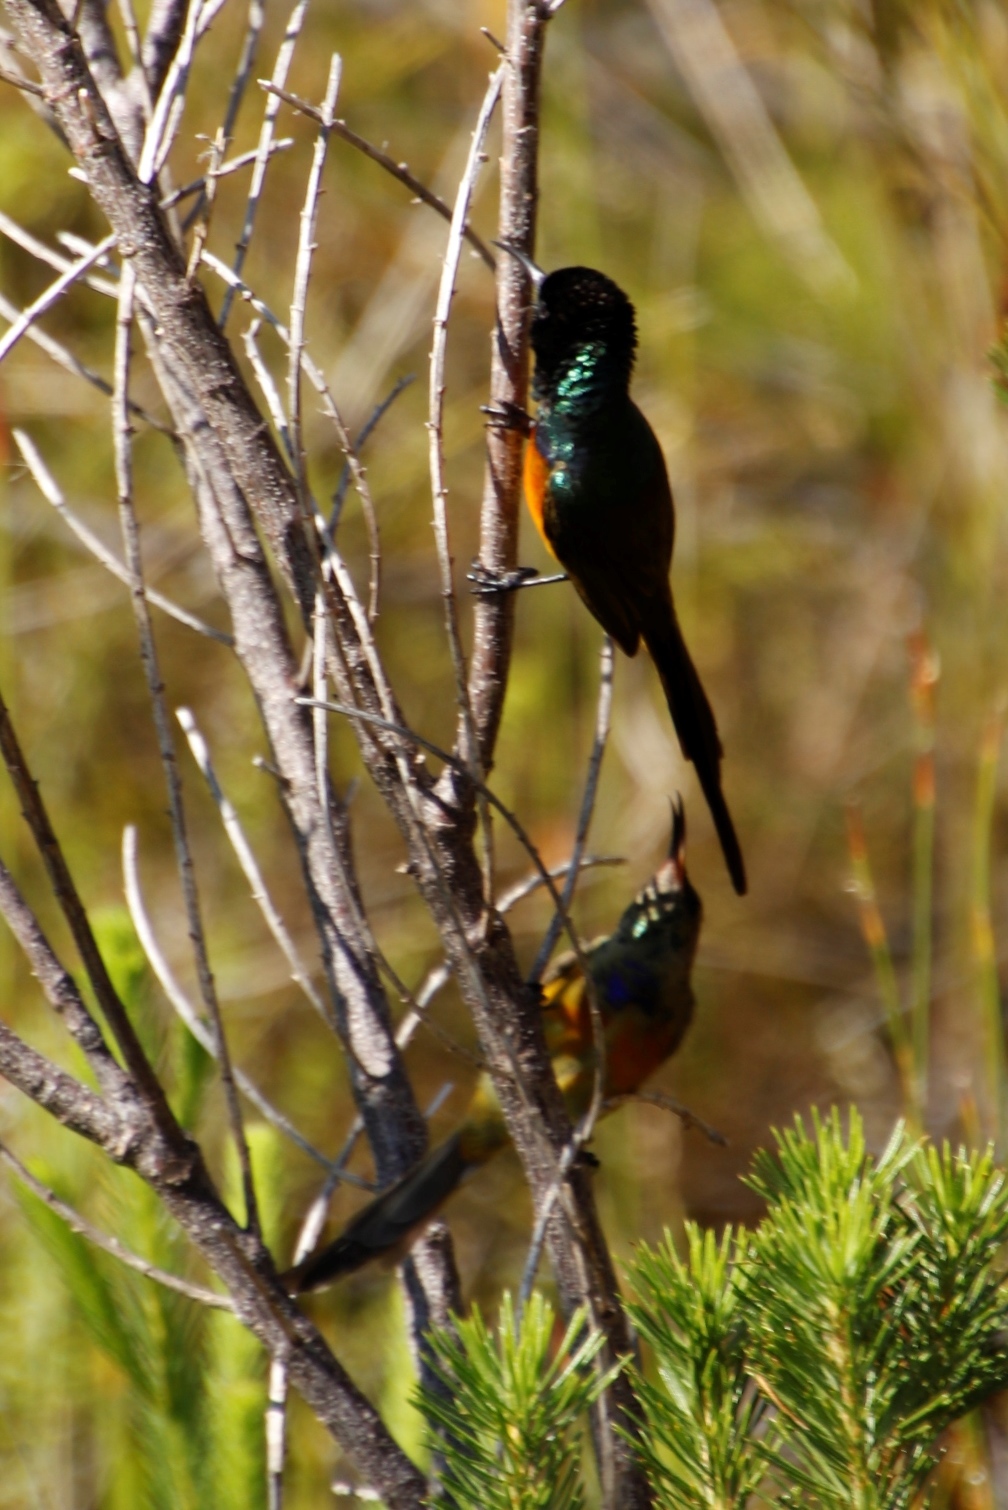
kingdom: Animalia
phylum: Chordata
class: Aves
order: Passeriformes
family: Nectariniidae
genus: Anthobaphes
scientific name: Anthobaphes violacea
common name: Orange-breasted sunbird
